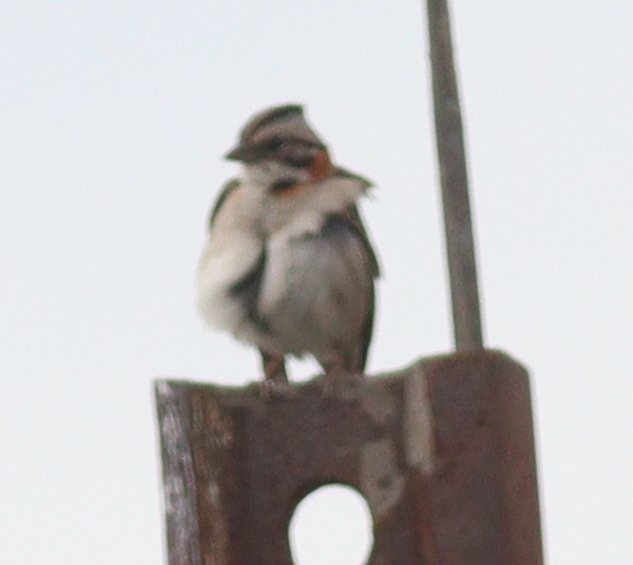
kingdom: Animalia
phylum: Chordata
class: Aves
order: Passeriformes
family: Passerellidae
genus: Zonotrichia
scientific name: Zonotrichia capensis
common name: Rufous-collared sparrow
